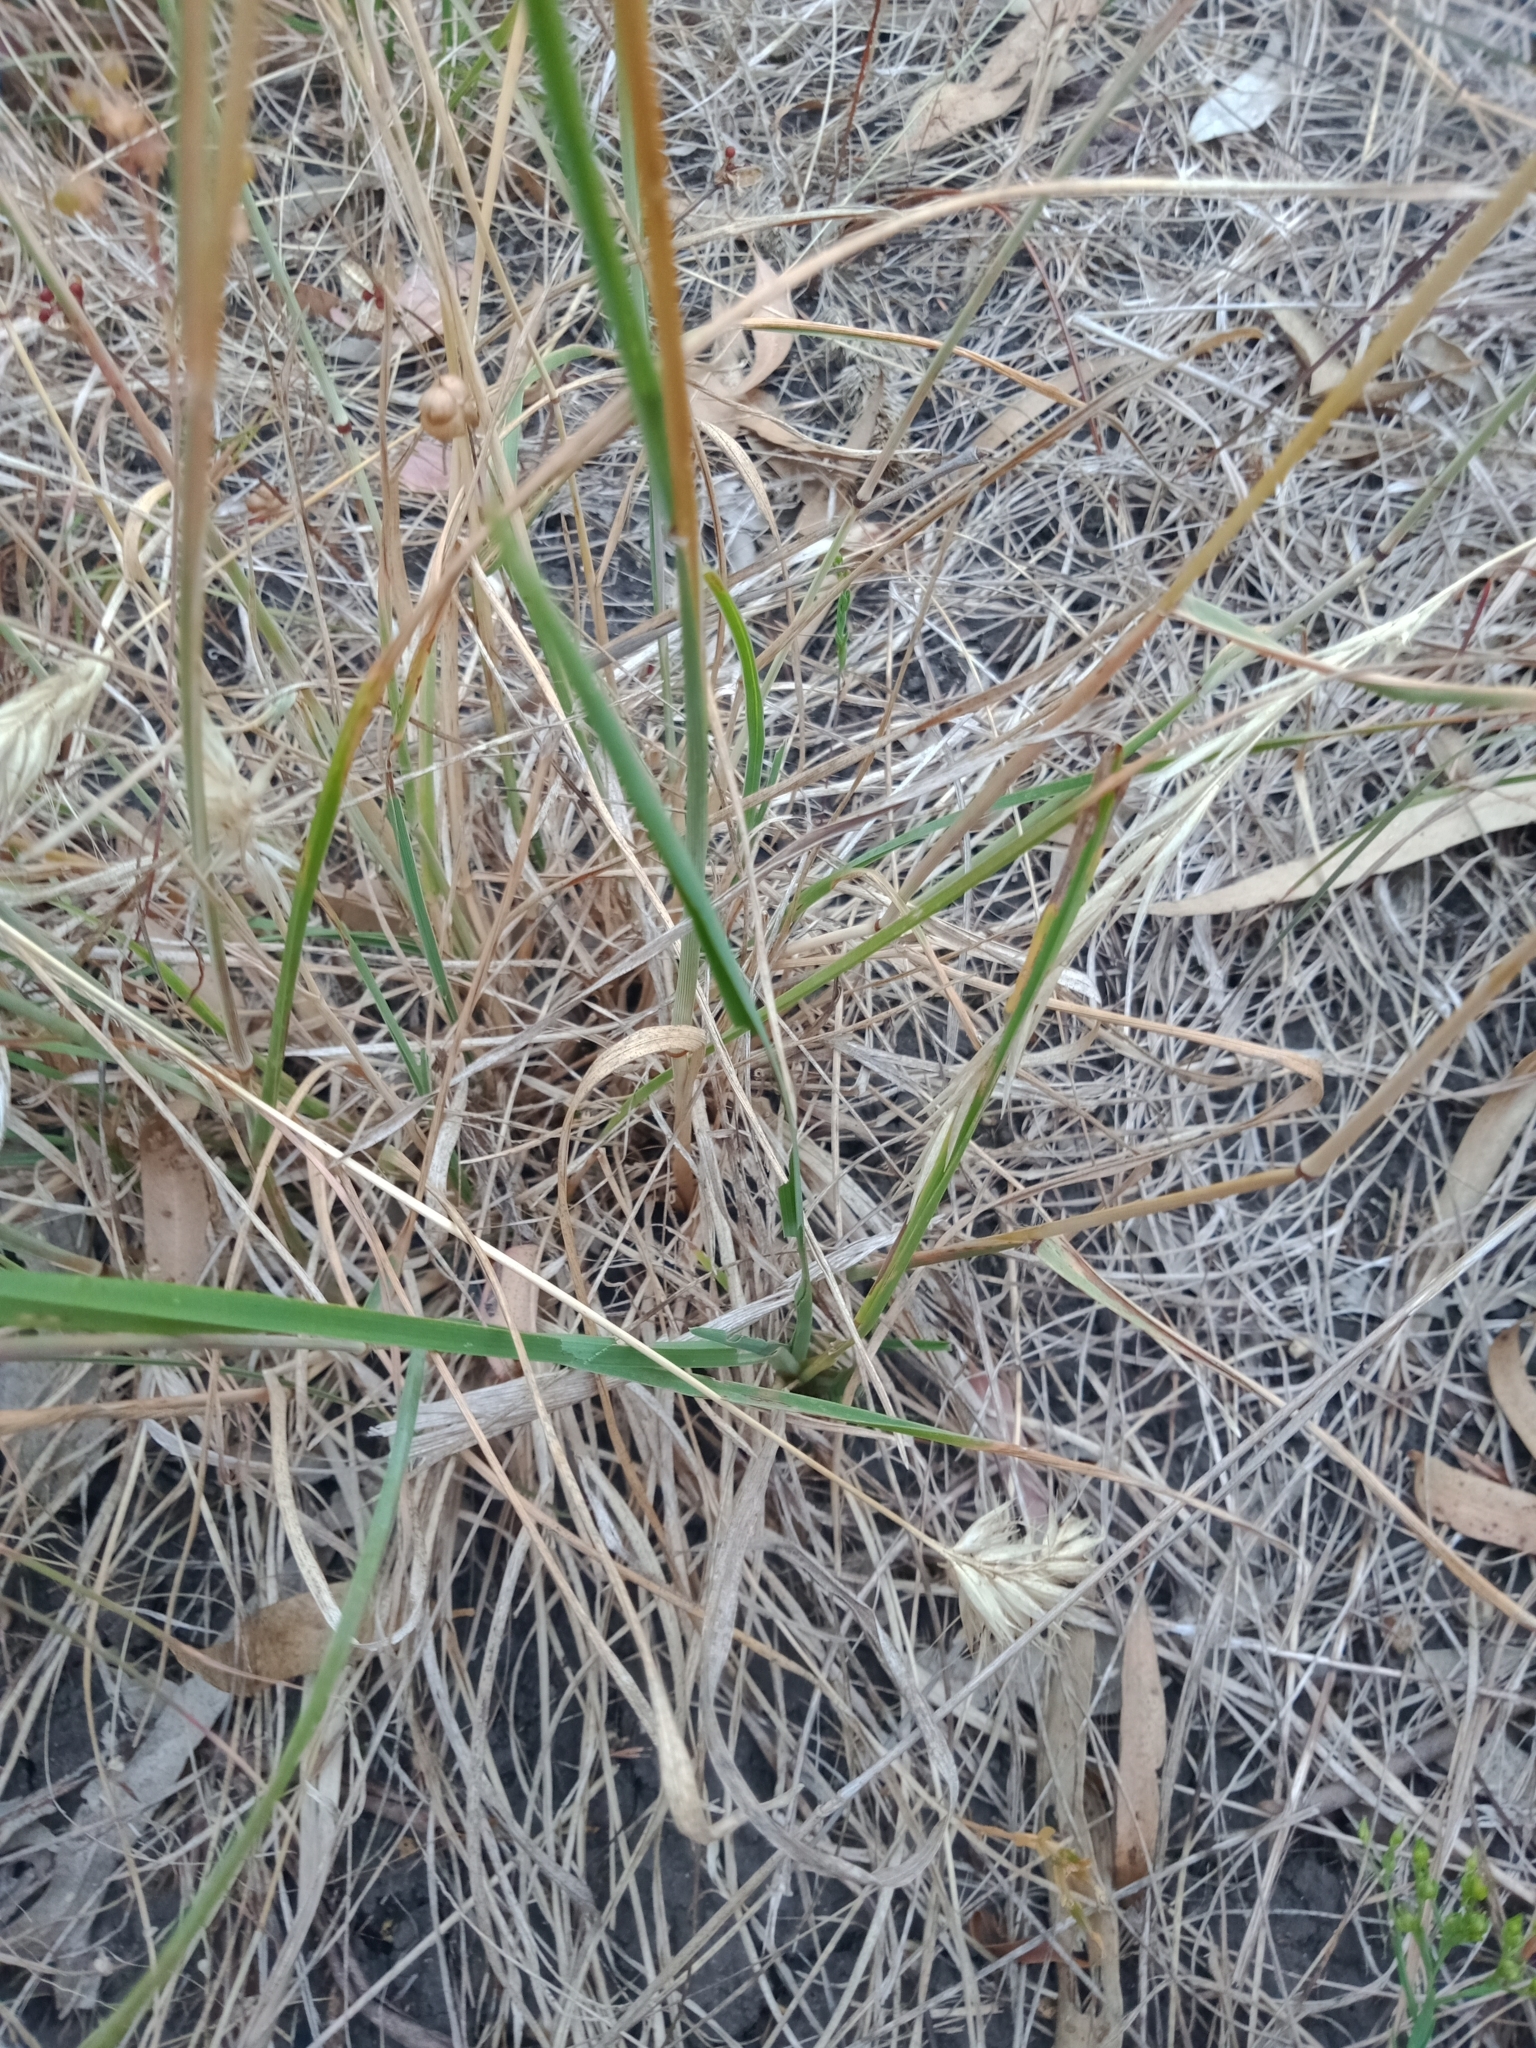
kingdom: Plantae
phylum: Tracheophyta
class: Liliopsida
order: Poales
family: Poaceae
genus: Rytidosperma
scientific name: Rytidosperma pilosum
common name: Hairy wallaby grass
